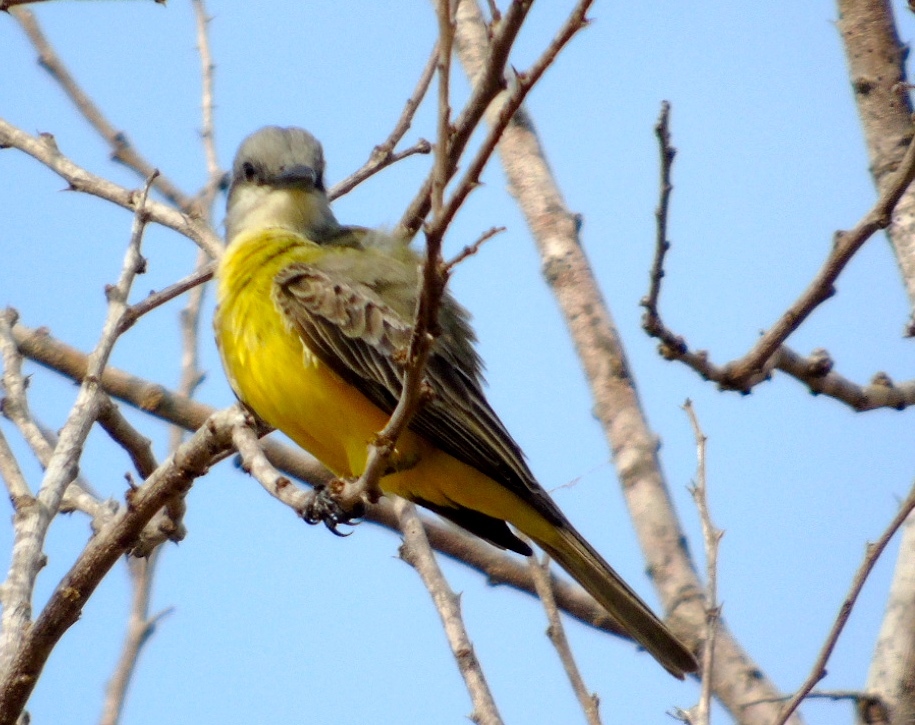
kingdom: Animalia
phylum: Chordata
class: Aves
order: Passeriformes
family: Tyrannidae
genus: Tyrannus
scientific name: Tyrannus melancholicus
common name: Tropical kingbird
